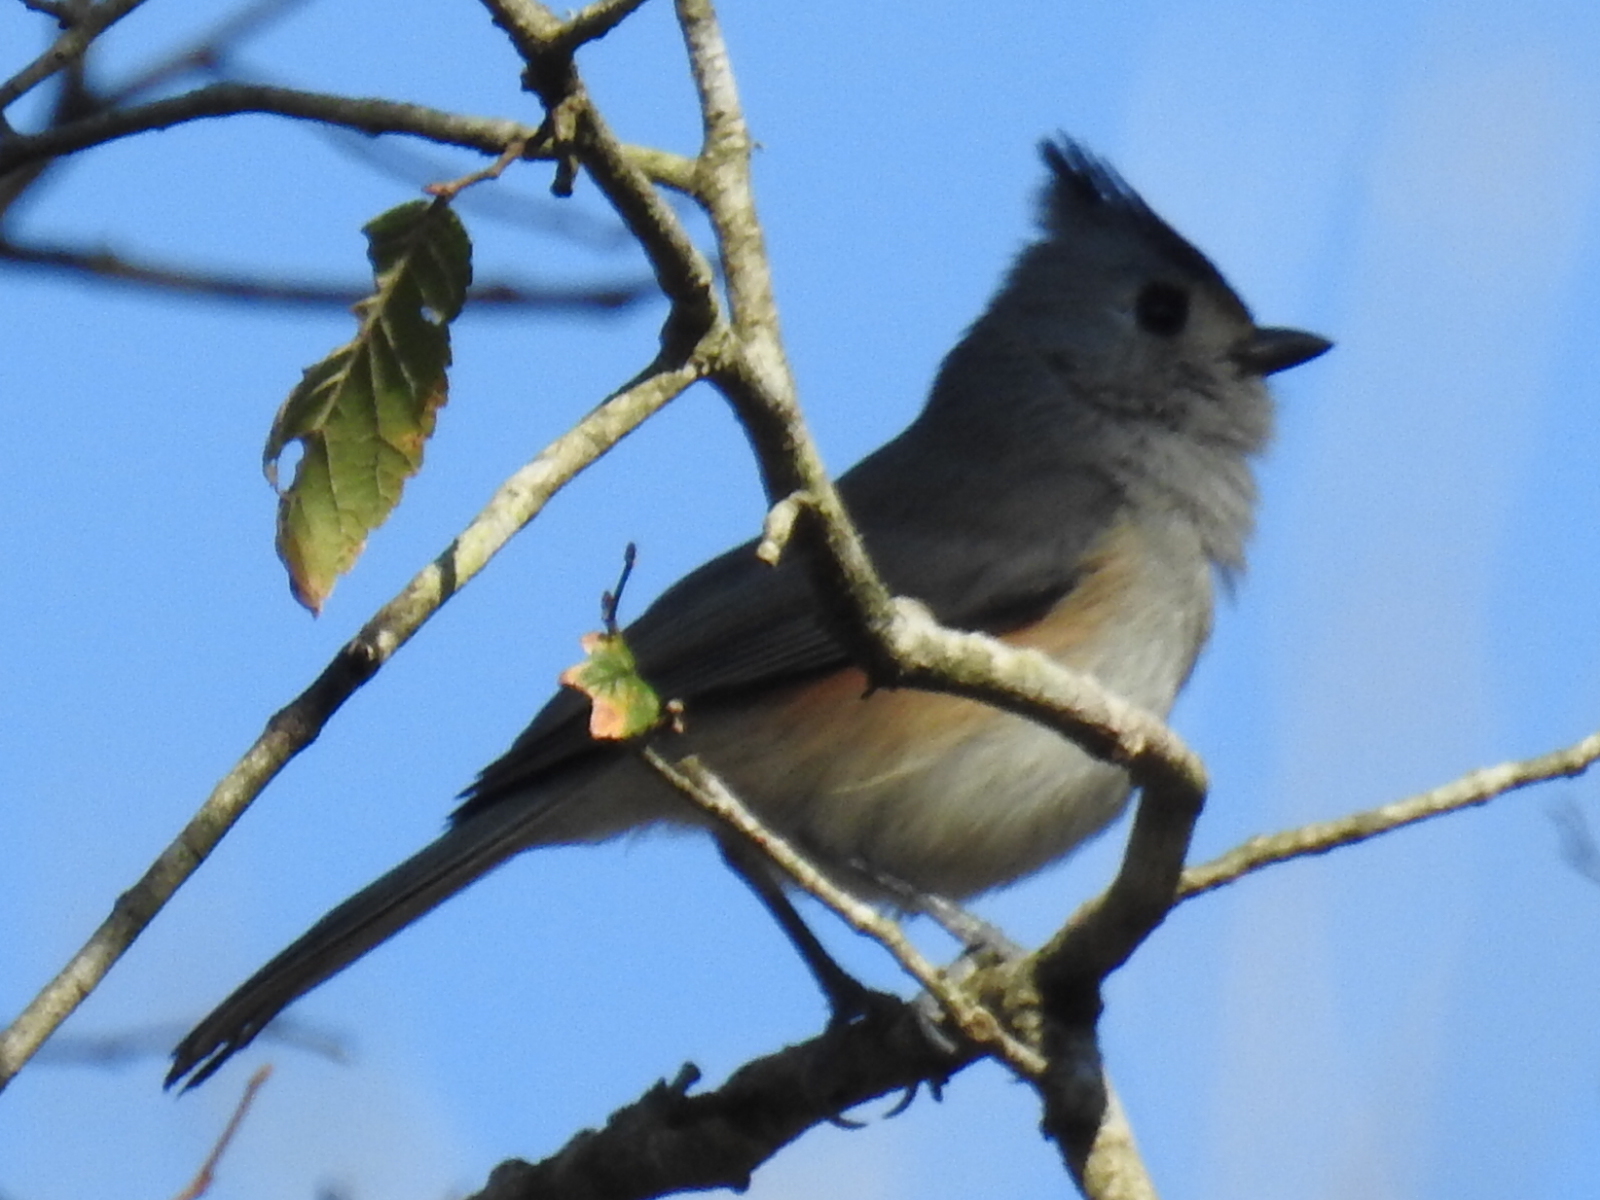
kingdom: Animalia
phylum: Chordata
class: Aves
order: Passeriformes
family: Paridae
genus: Baeolophus
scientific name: Baeolophus atricristatus
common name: Black-crested titmouse
